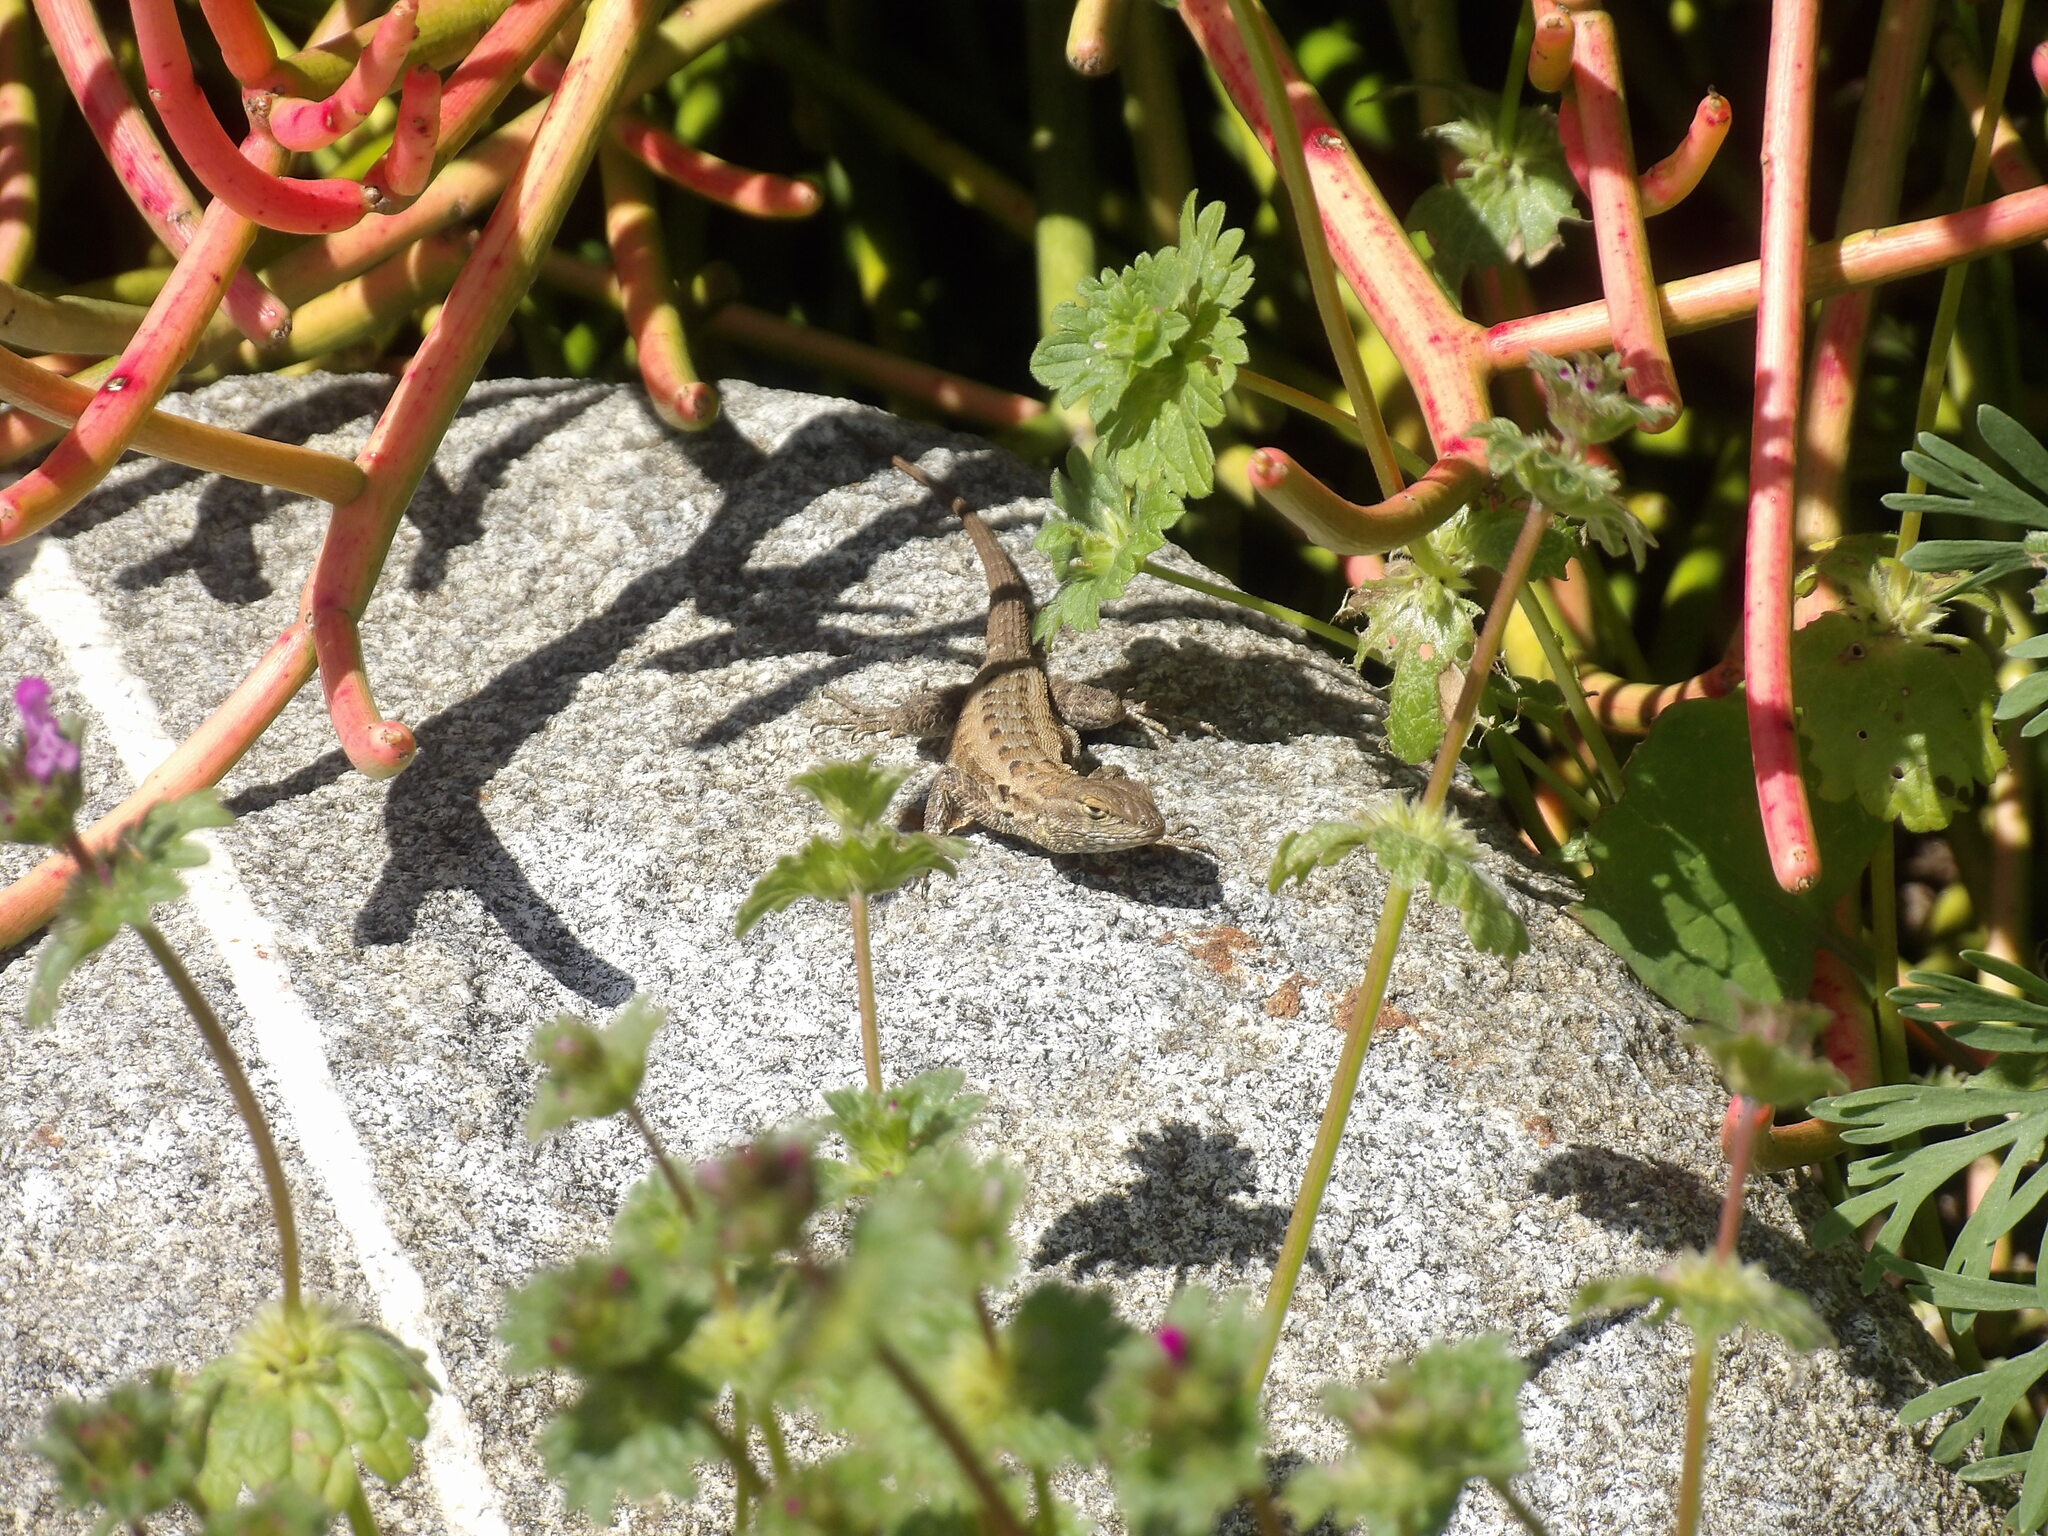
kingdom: Animalia
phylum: Chordata
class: Squamata
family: Phrynosomatidae
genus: Uta
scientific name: Uta stansburiana
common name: Side-blotched lizard
